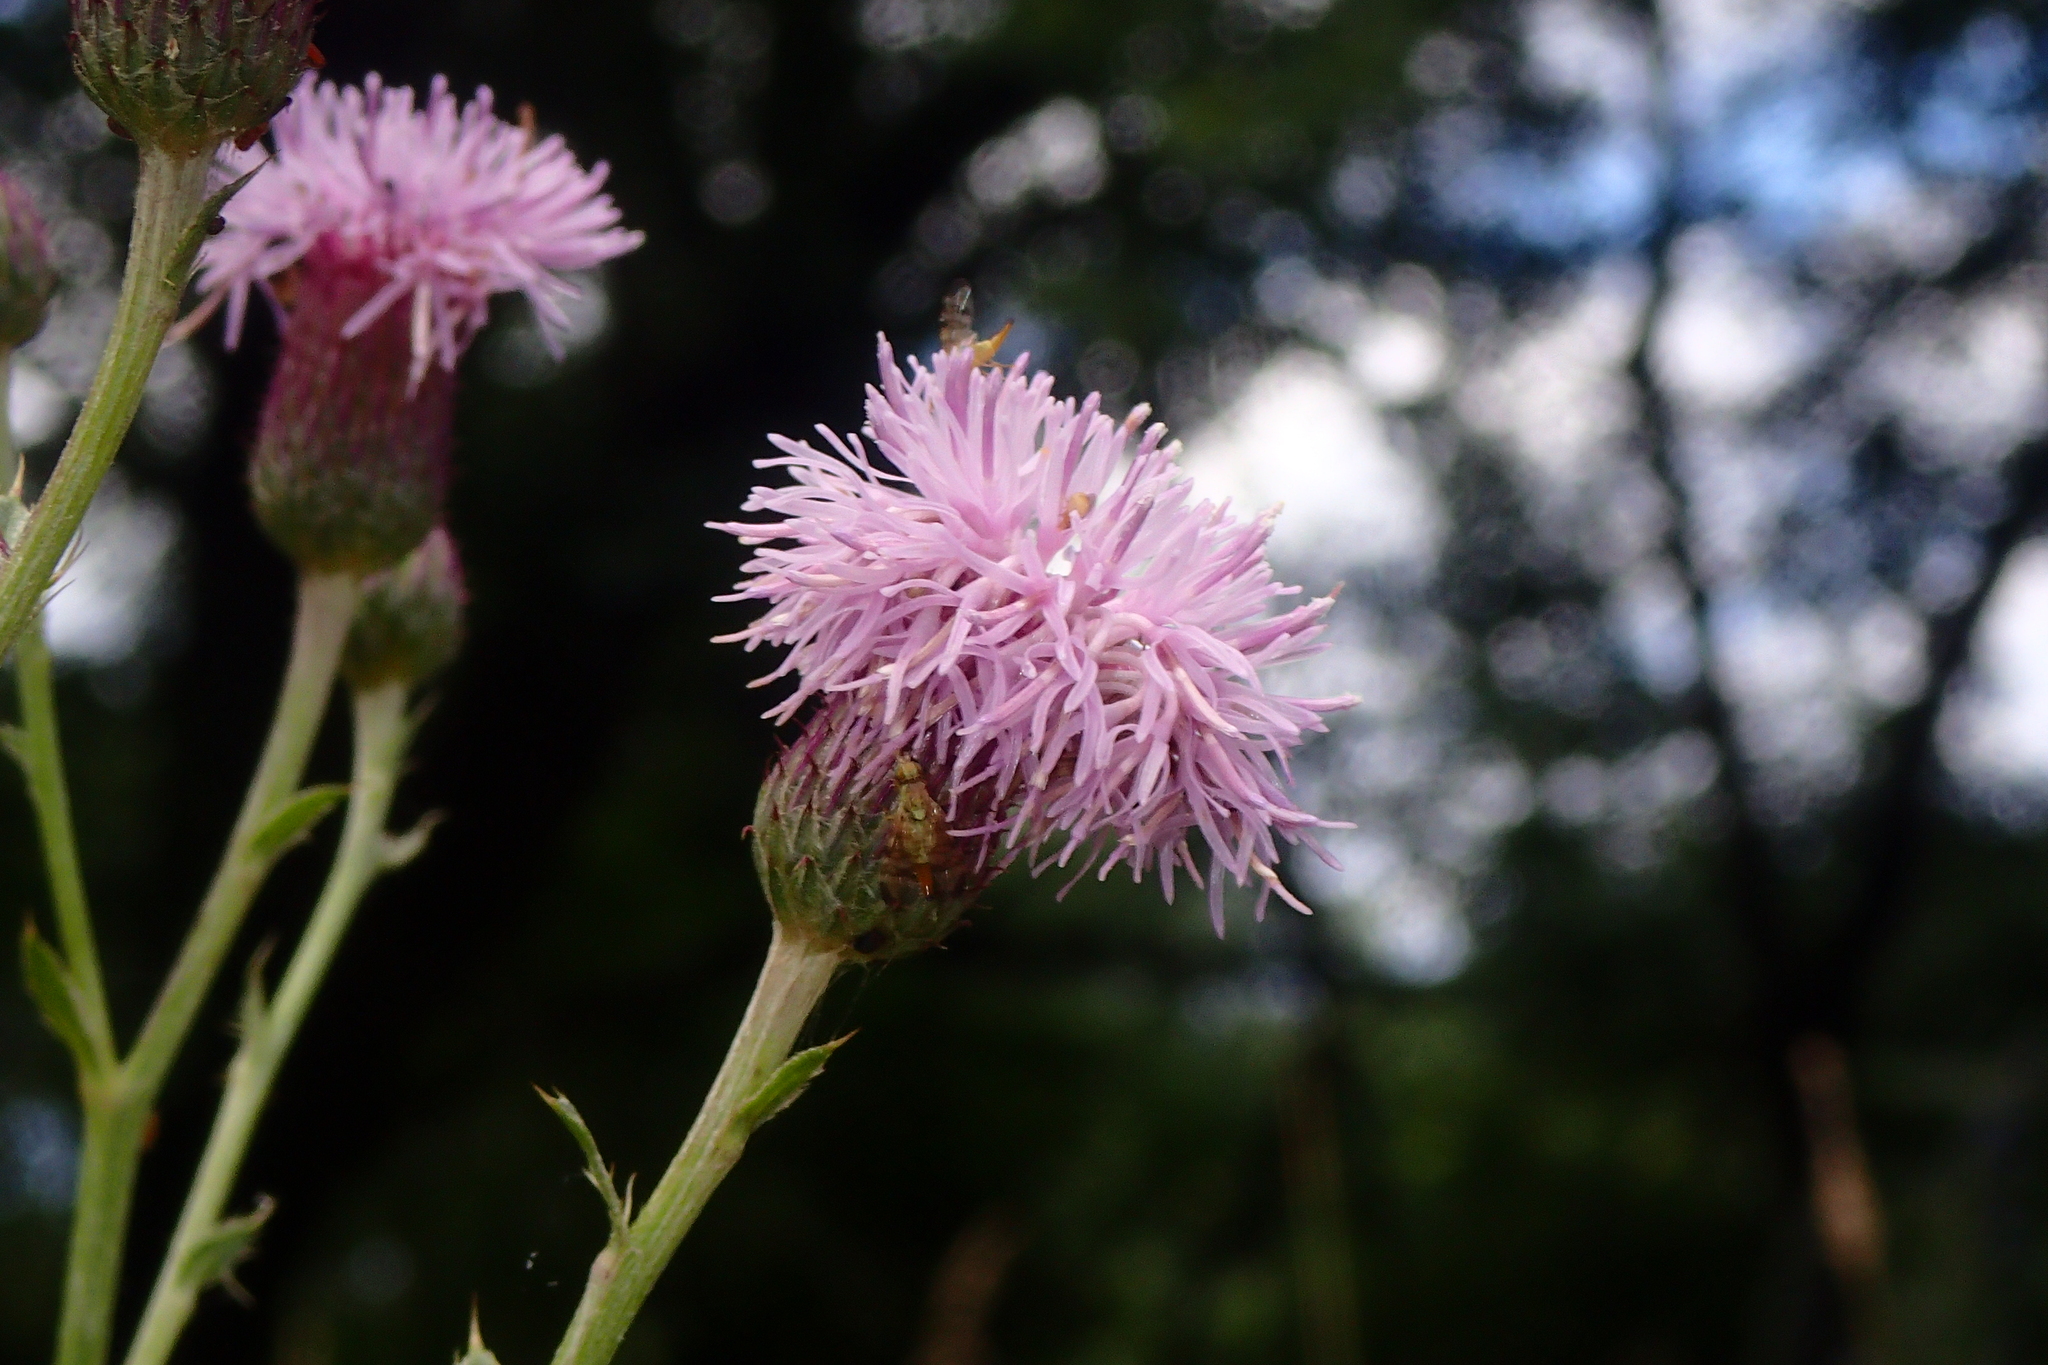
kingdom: Plantae
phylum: Tracheophyta
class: Magnoliopsida
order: Asterales
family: Asteraceae
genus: Cirsium
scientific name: Cirsium arvense
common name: Creeping thistle
